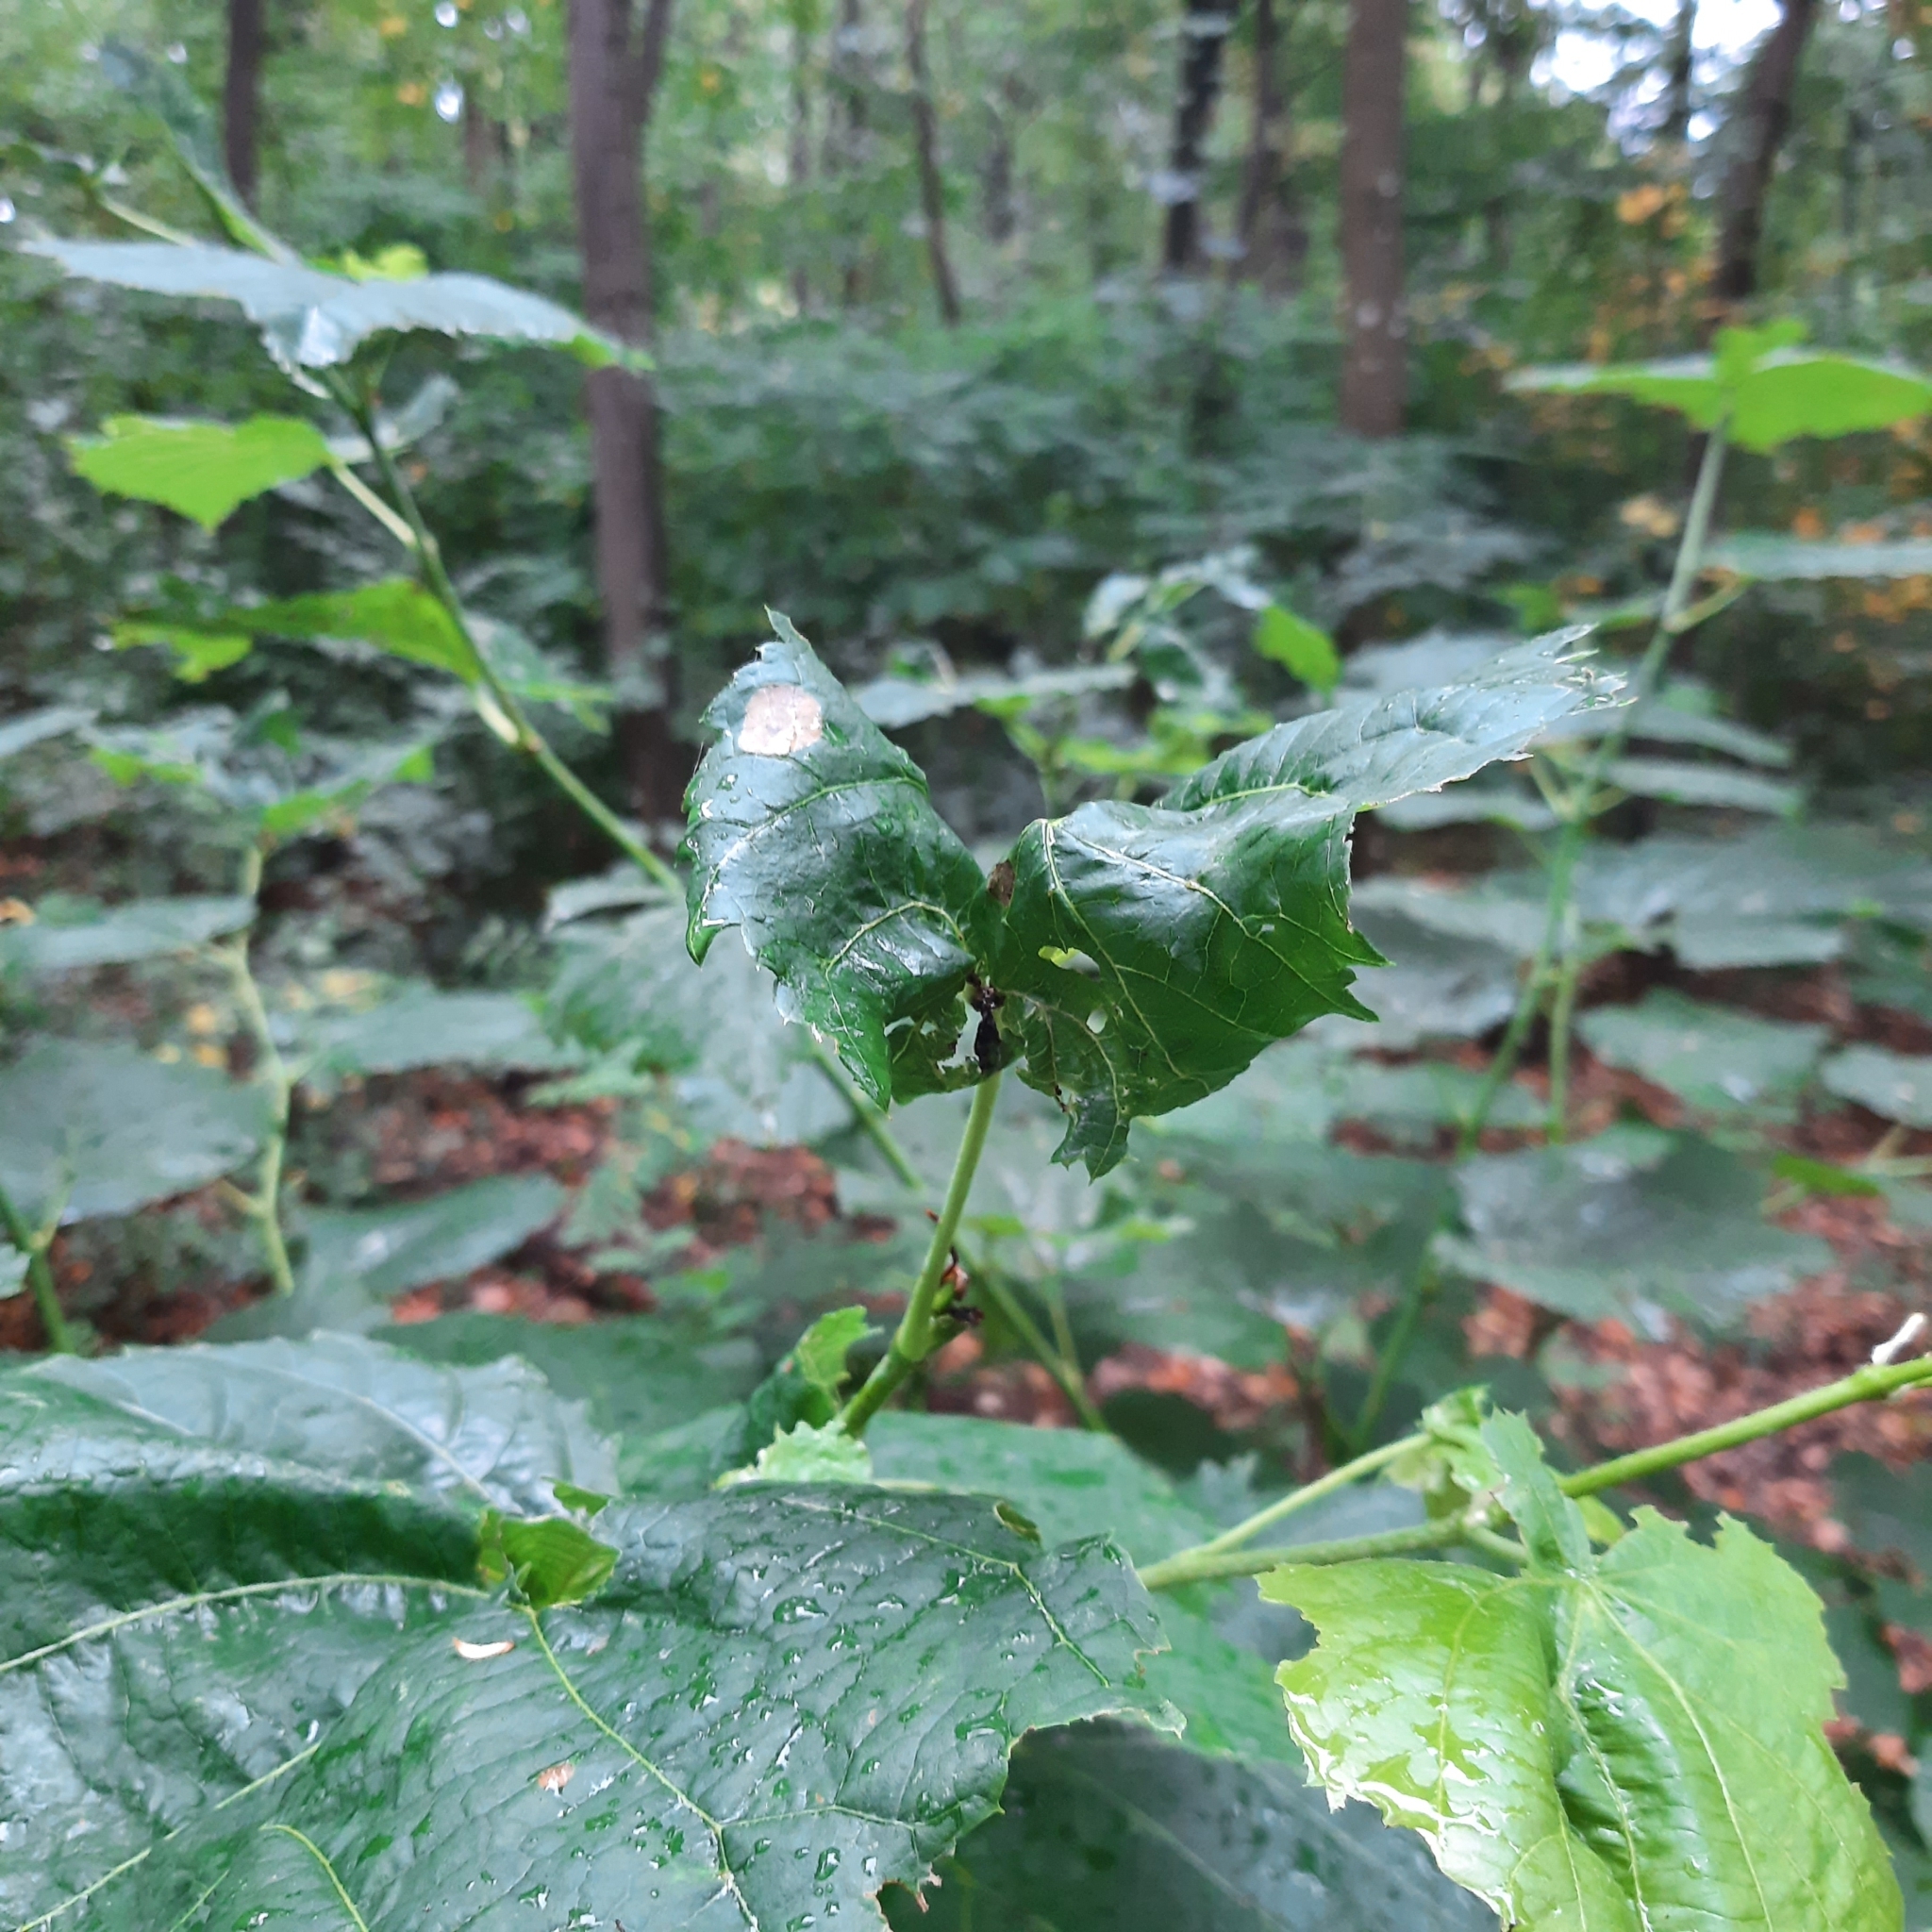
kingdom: Plantae
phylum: Tracheophyta
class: Magnoliopsida
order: Malvales
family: Malvaceae
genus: Tilia
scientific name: Tilia
